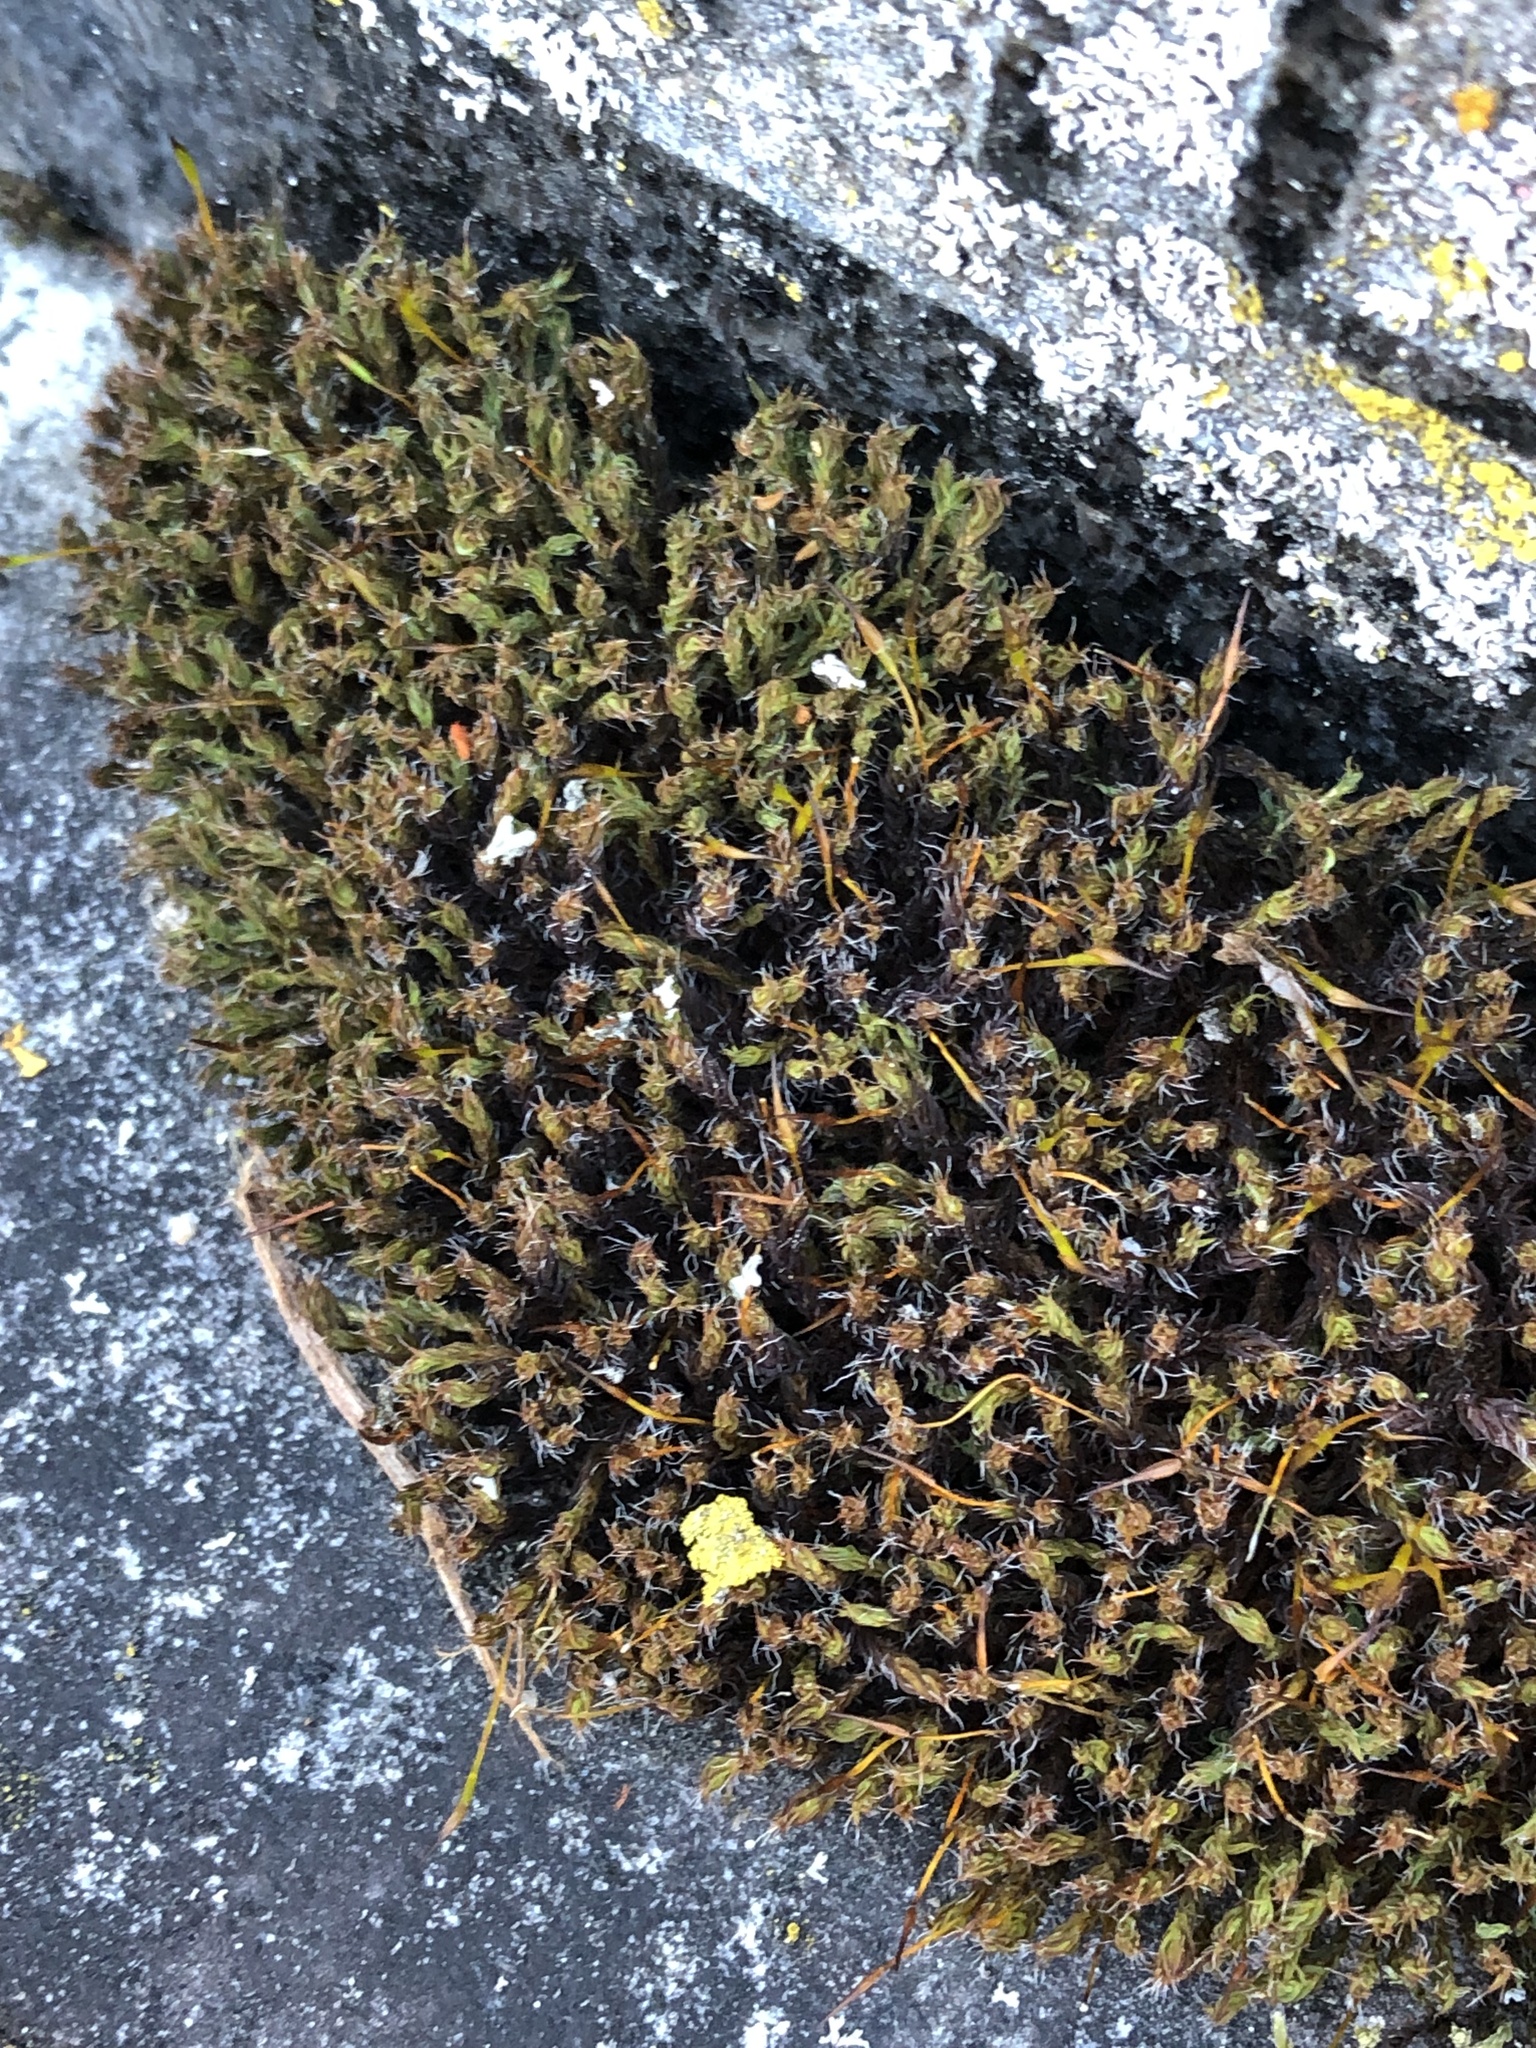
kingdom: Plantae
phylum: Bryophyta
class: Bryopsida
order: Pottiales
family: Pottiaceae
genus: Syntrichia
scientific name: Syntrichia ruralis
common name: Sidewalk screw moss
